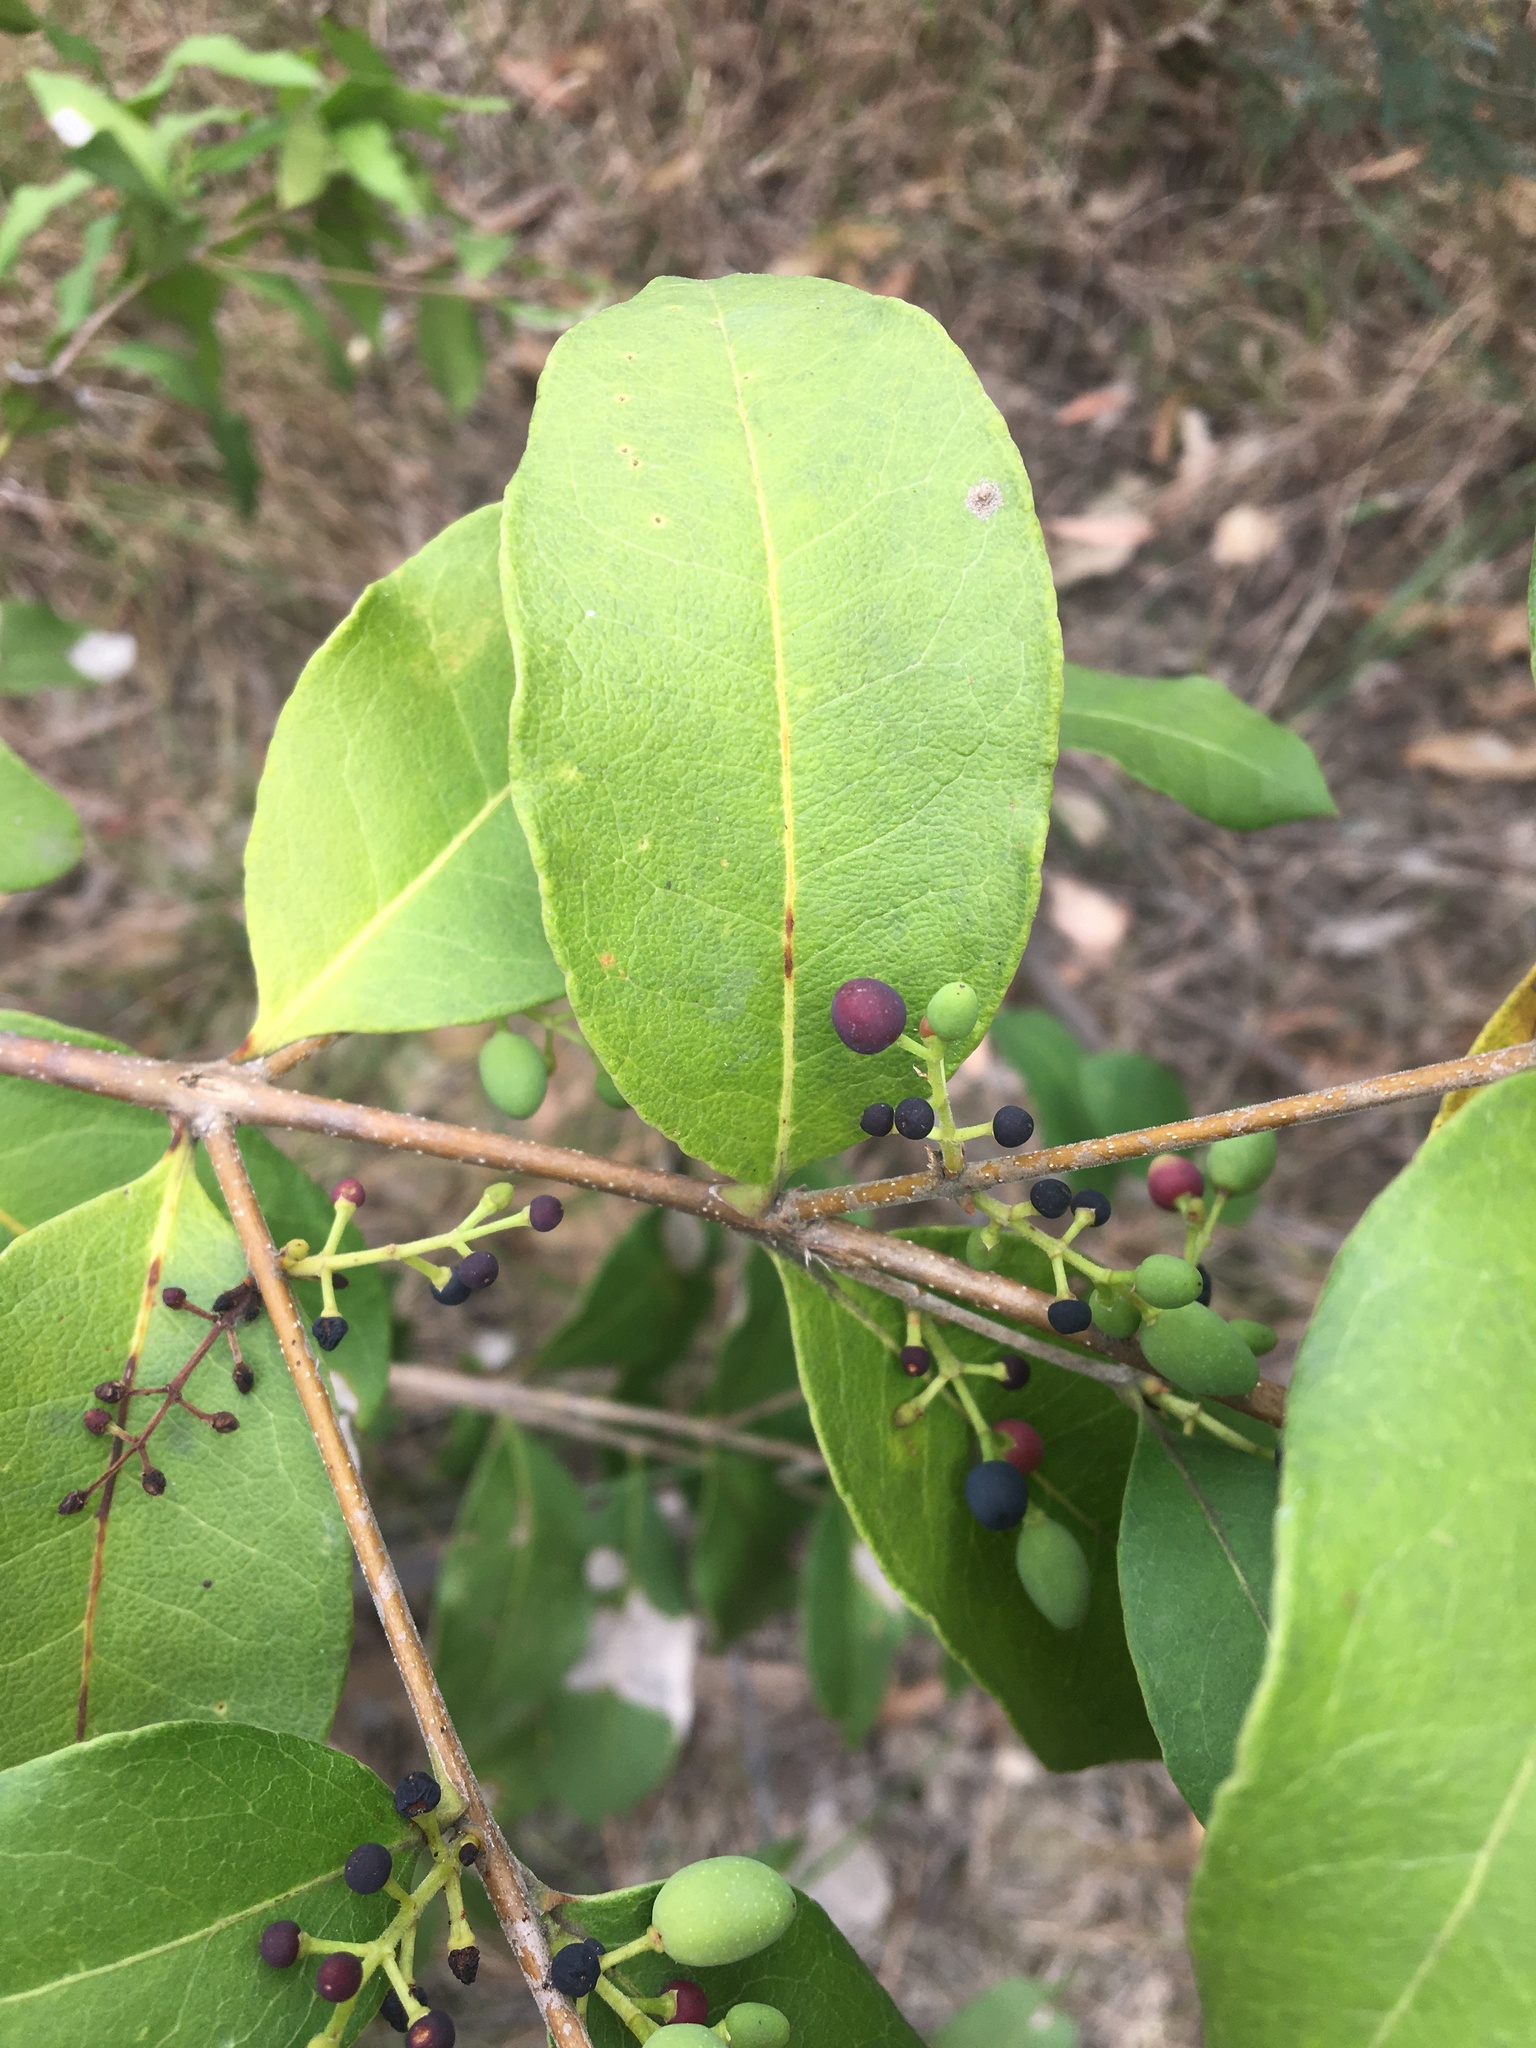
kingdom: Plantae
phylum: Tracheophyta
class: Magnoliopsida
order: Lamiales
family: Oleaceae
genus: Notelaea
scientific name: Notelaea ovata
